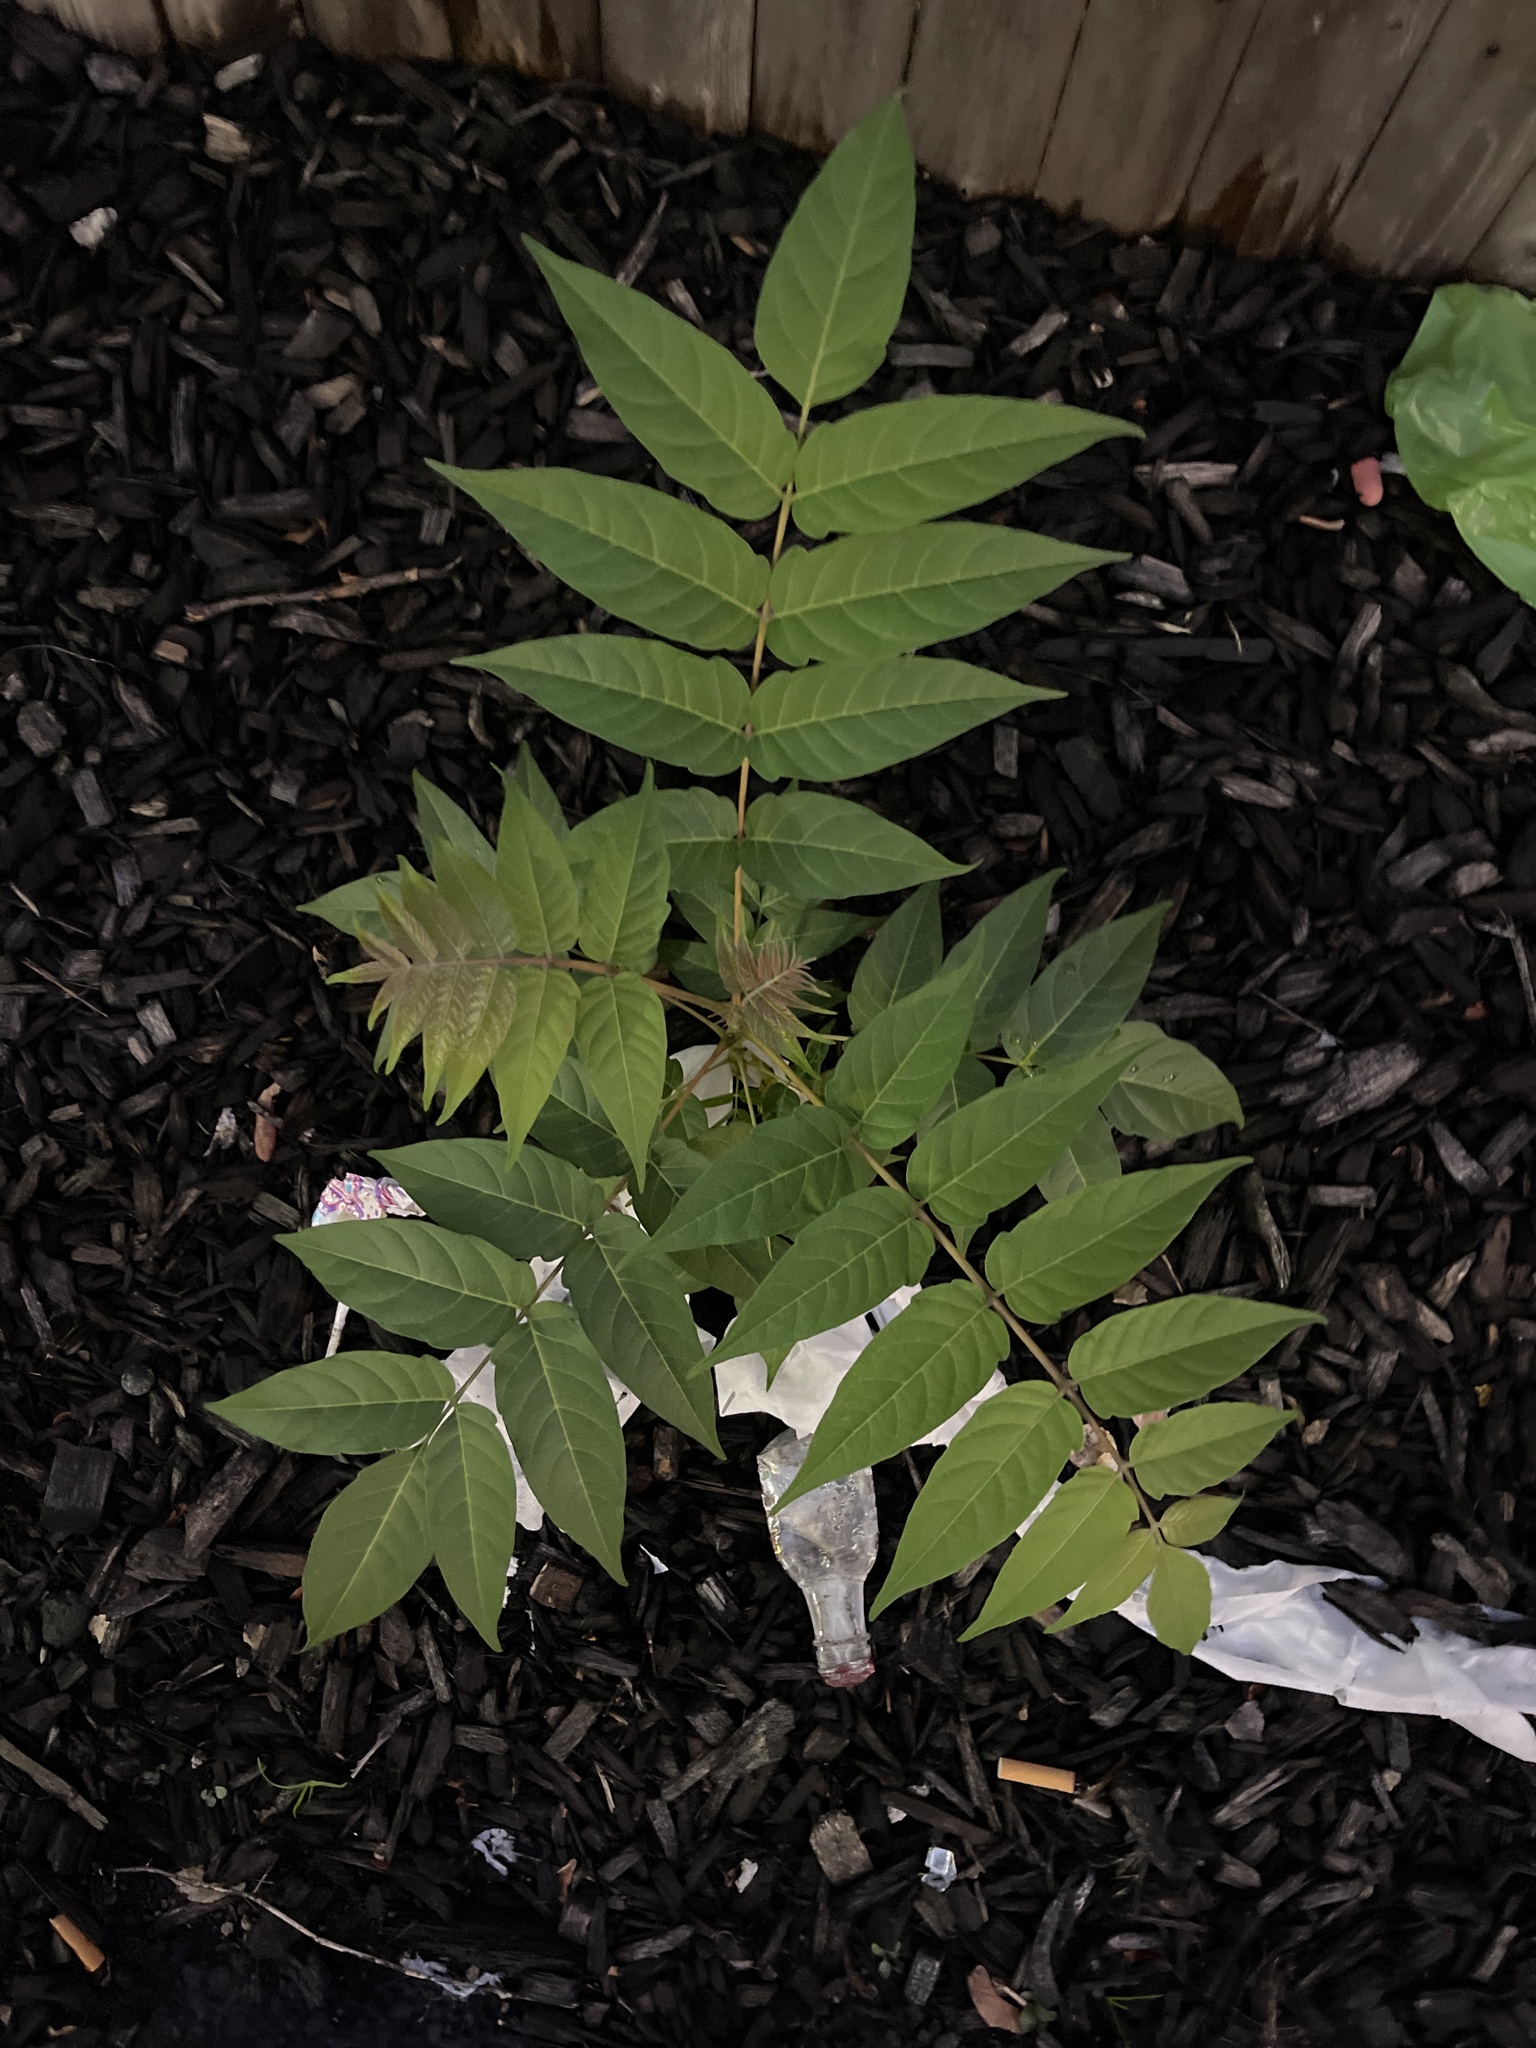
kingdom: Plantae
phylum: Tracheophyta
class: Magnoliopsida
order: Sapindales
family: Simaroubaceae
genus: Ailanthus
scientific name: Ailanthus altissima
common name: Tree-of-heaven
